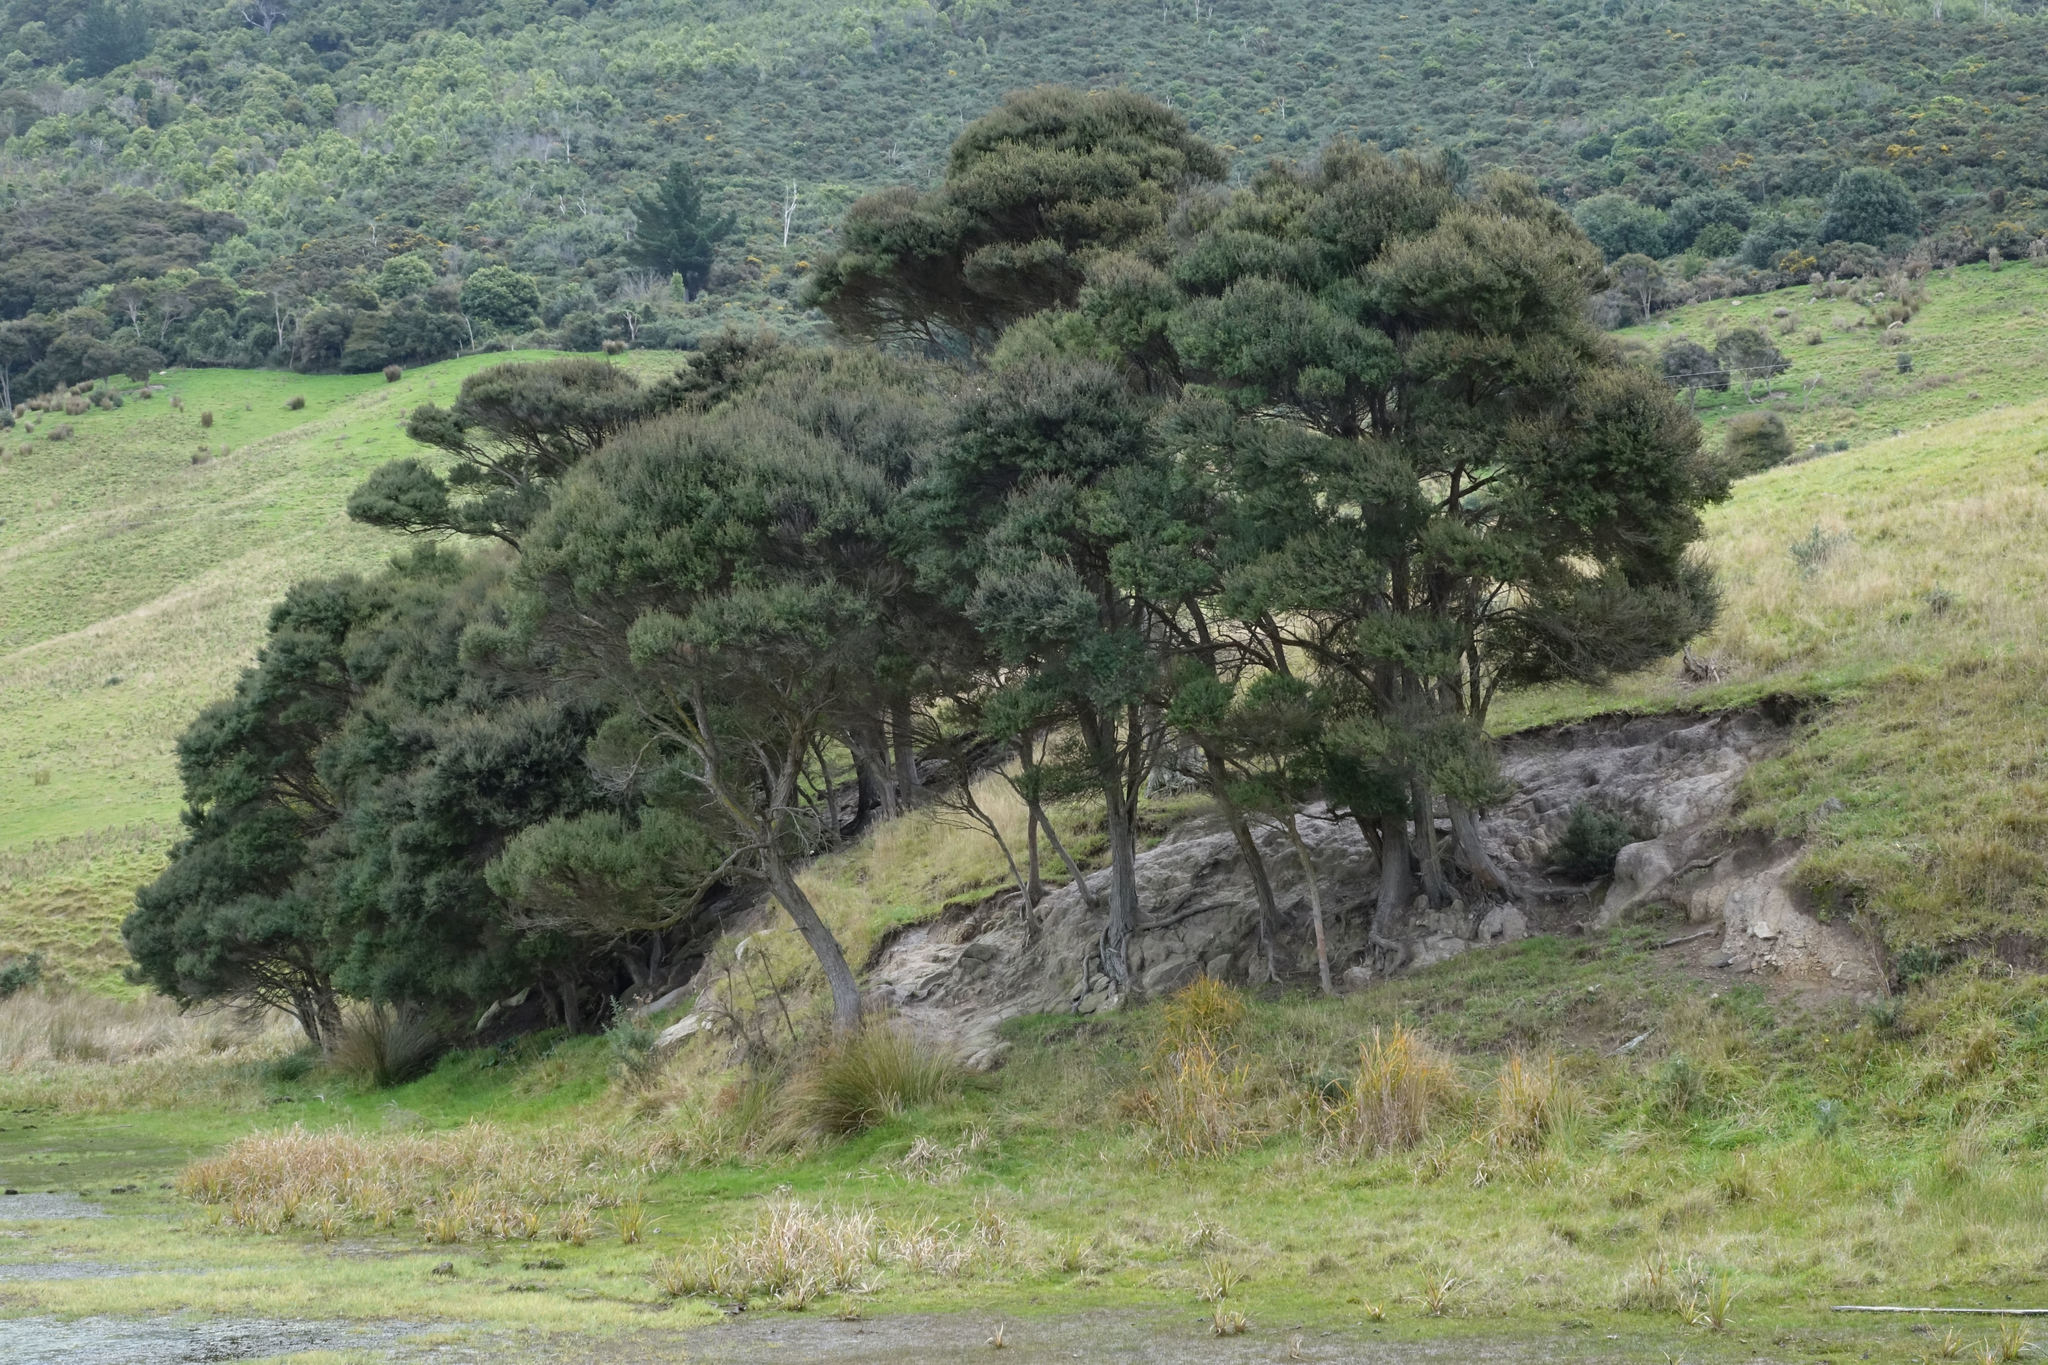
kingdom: Plantae
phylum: Tracheophyta
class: Magnoliopsida
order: Myrtales
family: Myrtaceae
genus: Kunzea
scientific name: Kunzea robusta
